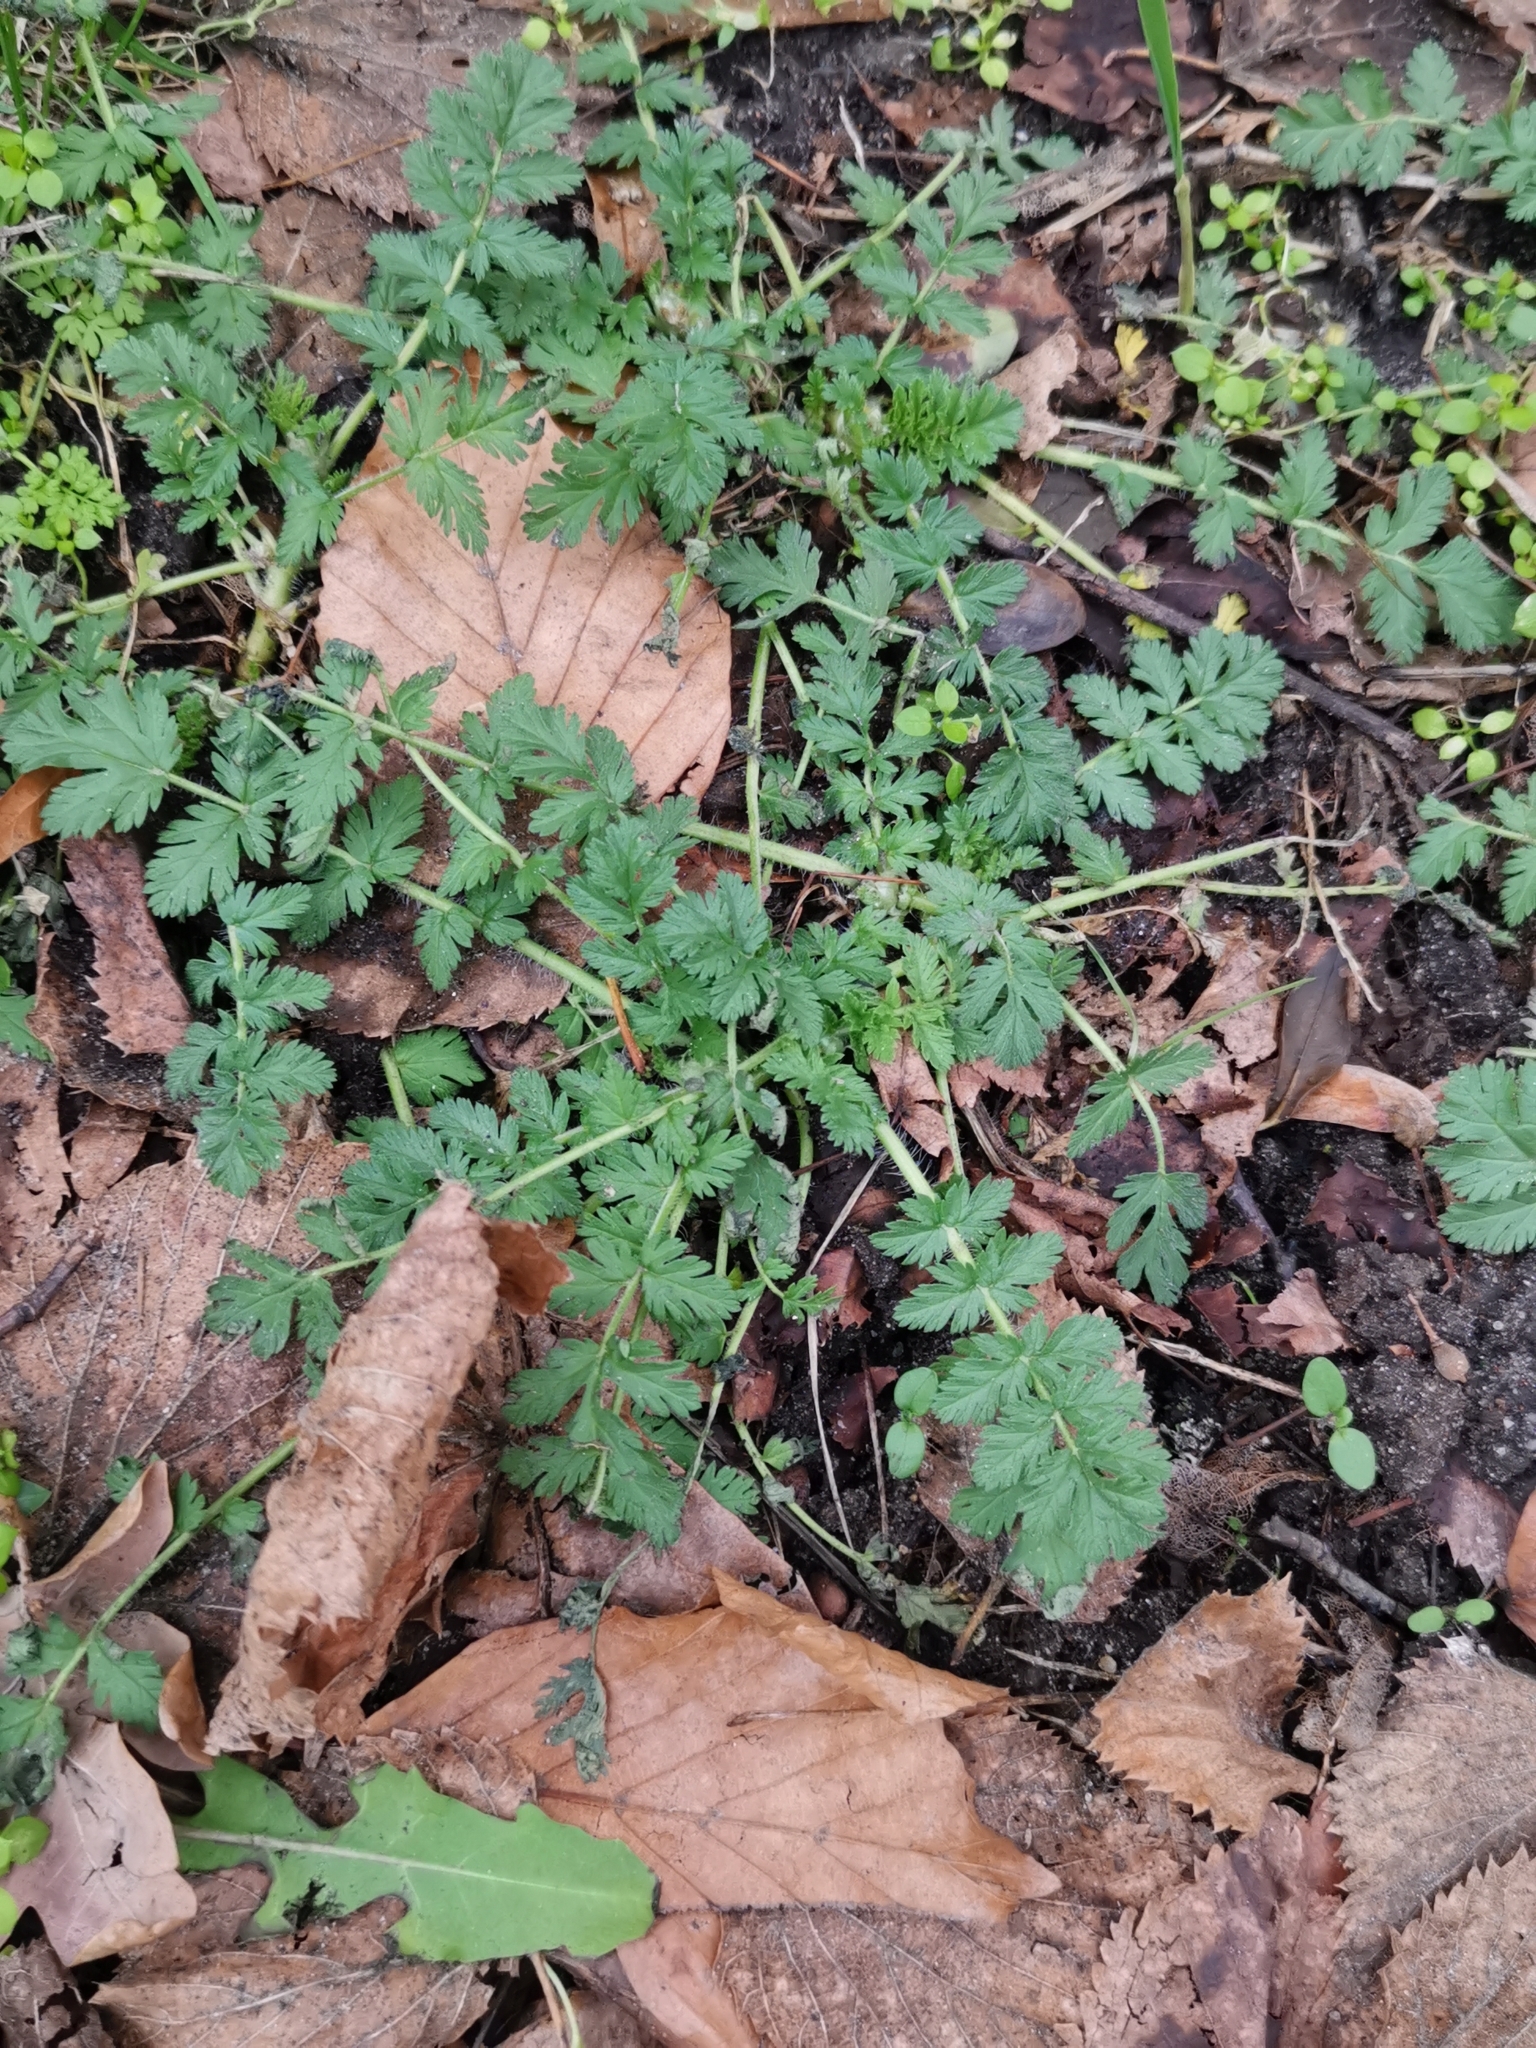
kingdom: Plantae
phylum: Tracheophyta
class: Magnoliopsida
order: Geraniales
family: Geraniaceae
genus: Erodium
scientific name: Erodium cicutarium
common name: Common stork's-bill
